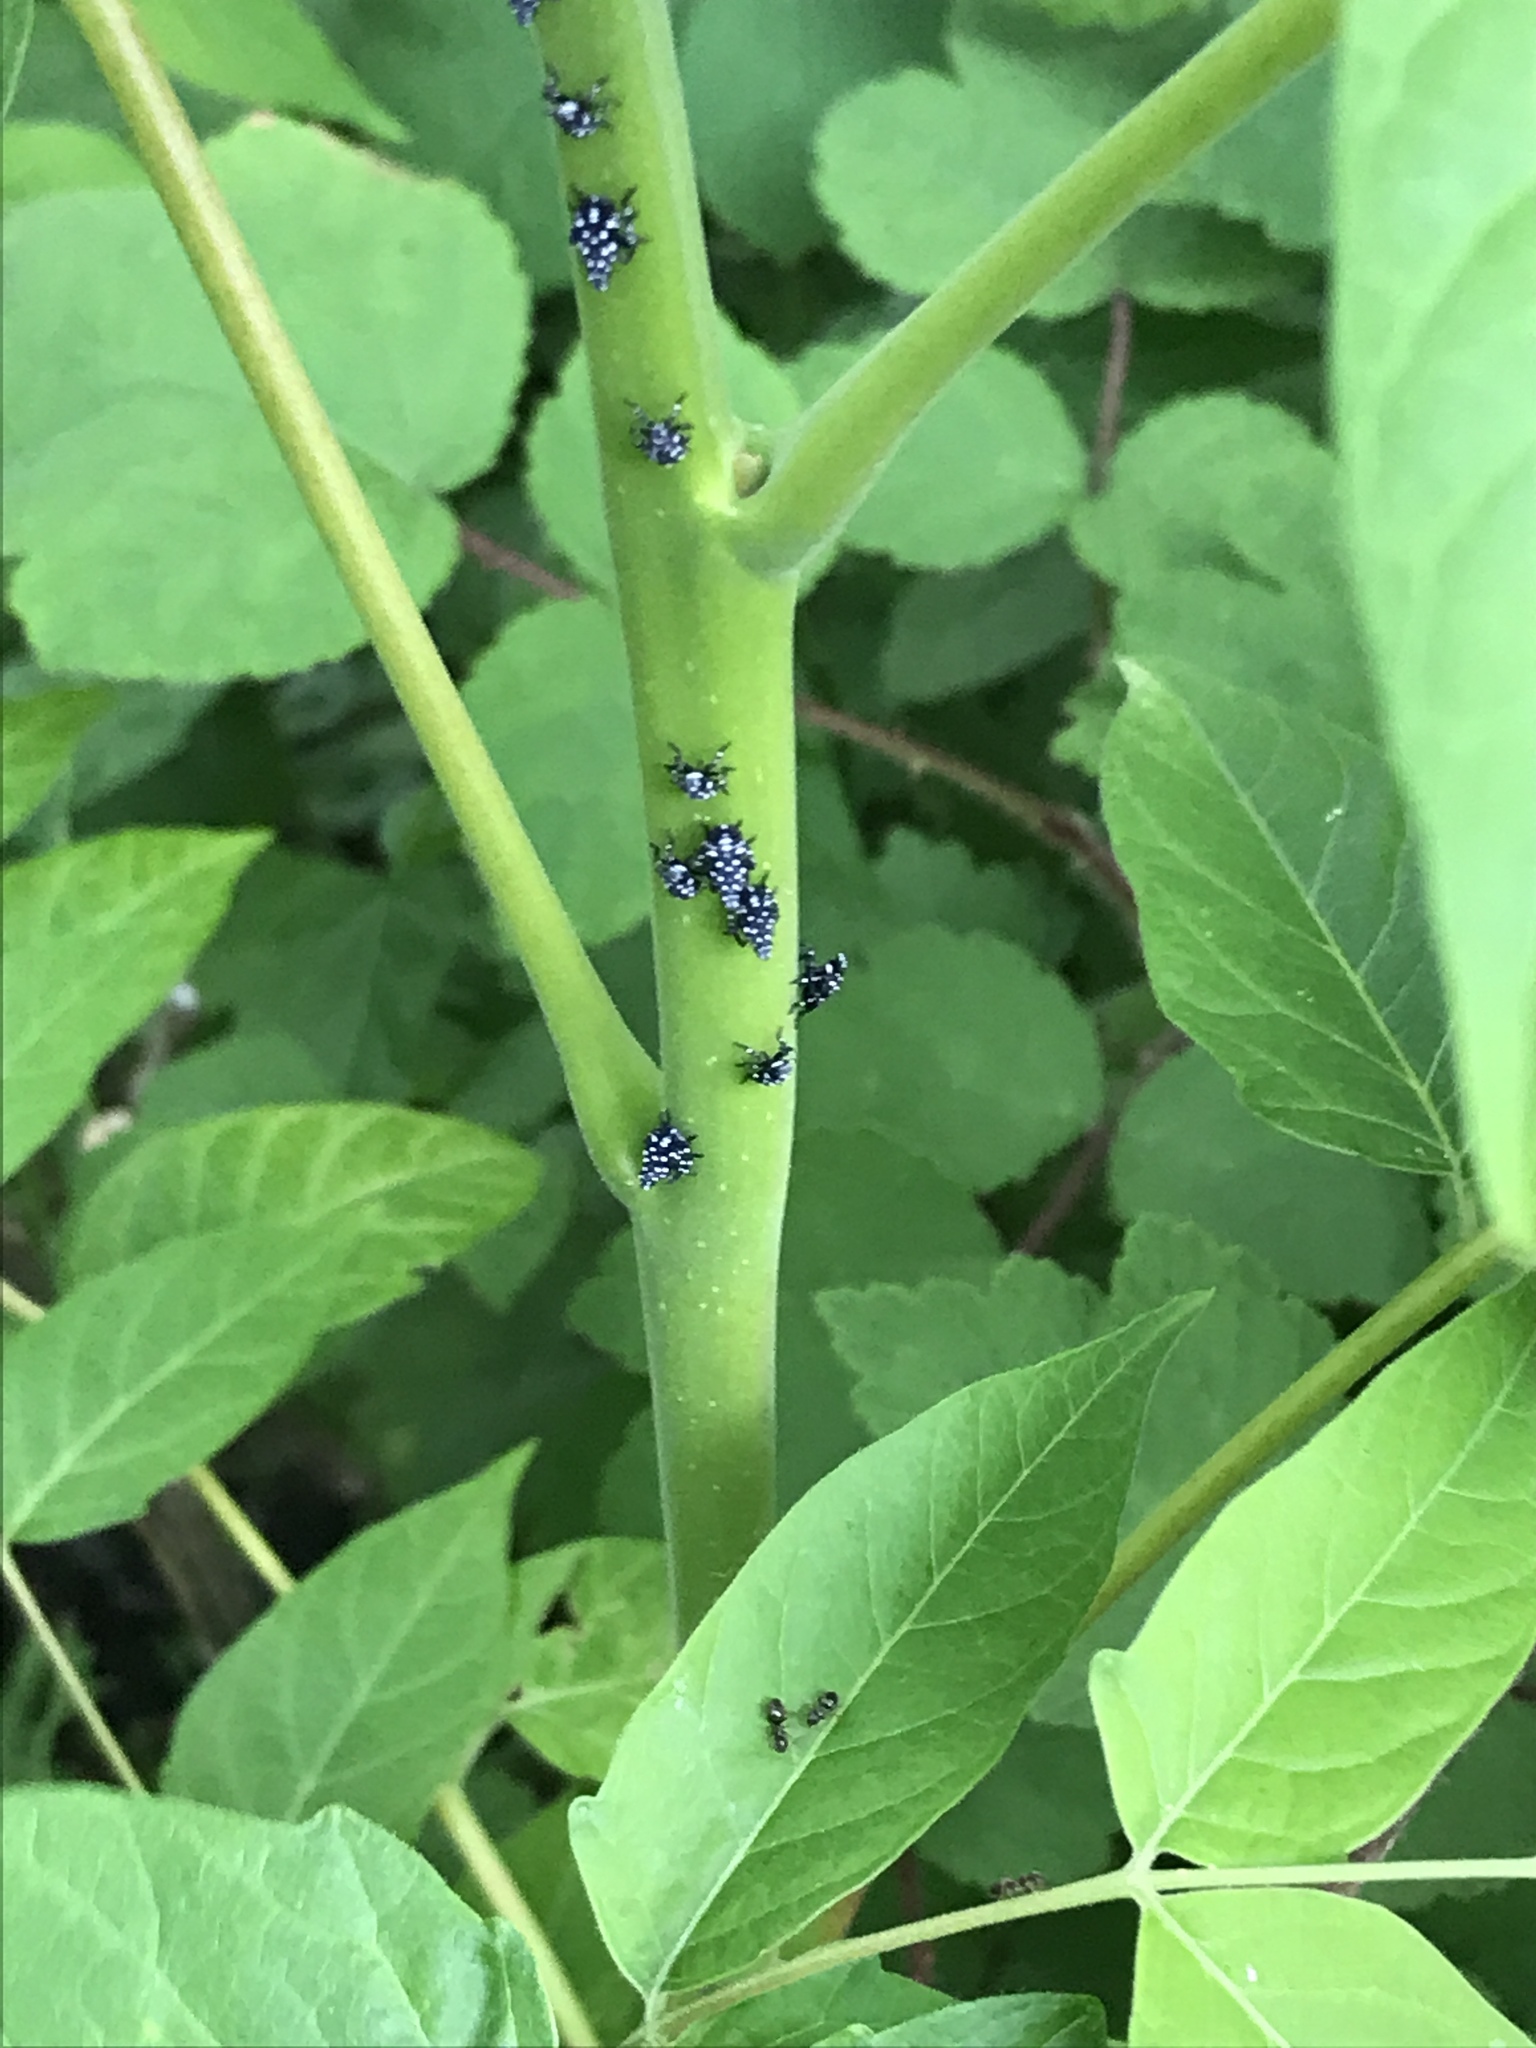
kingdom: Animalia
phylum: Arthropoda
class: Insecta
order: Hemiptera
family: Fulgoridae
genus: Lycorma
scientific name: Lycorma delicatula
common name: Spotted lanternfly
